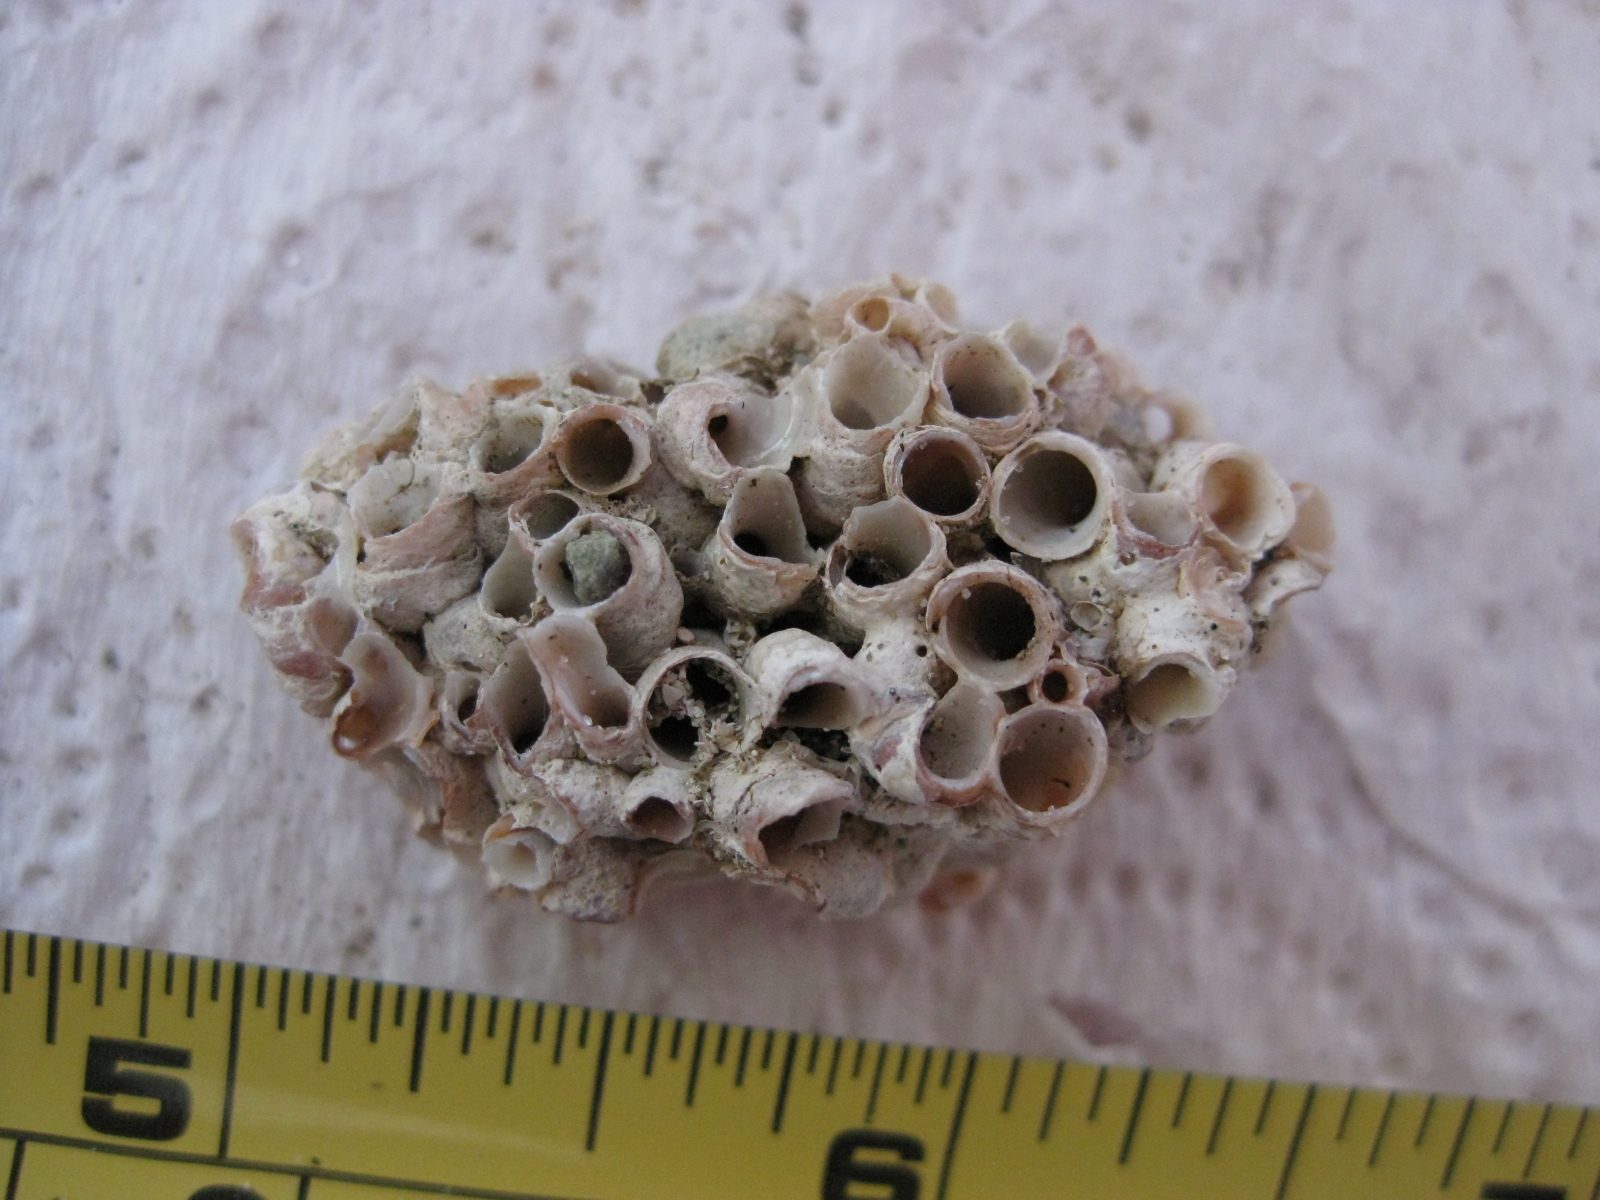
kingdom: Animalia
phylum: Mollusca
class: Gastropoda
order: Littorinimorpha
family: Vermetidae
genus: Novastoa
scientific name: Novastoa lamellosa
